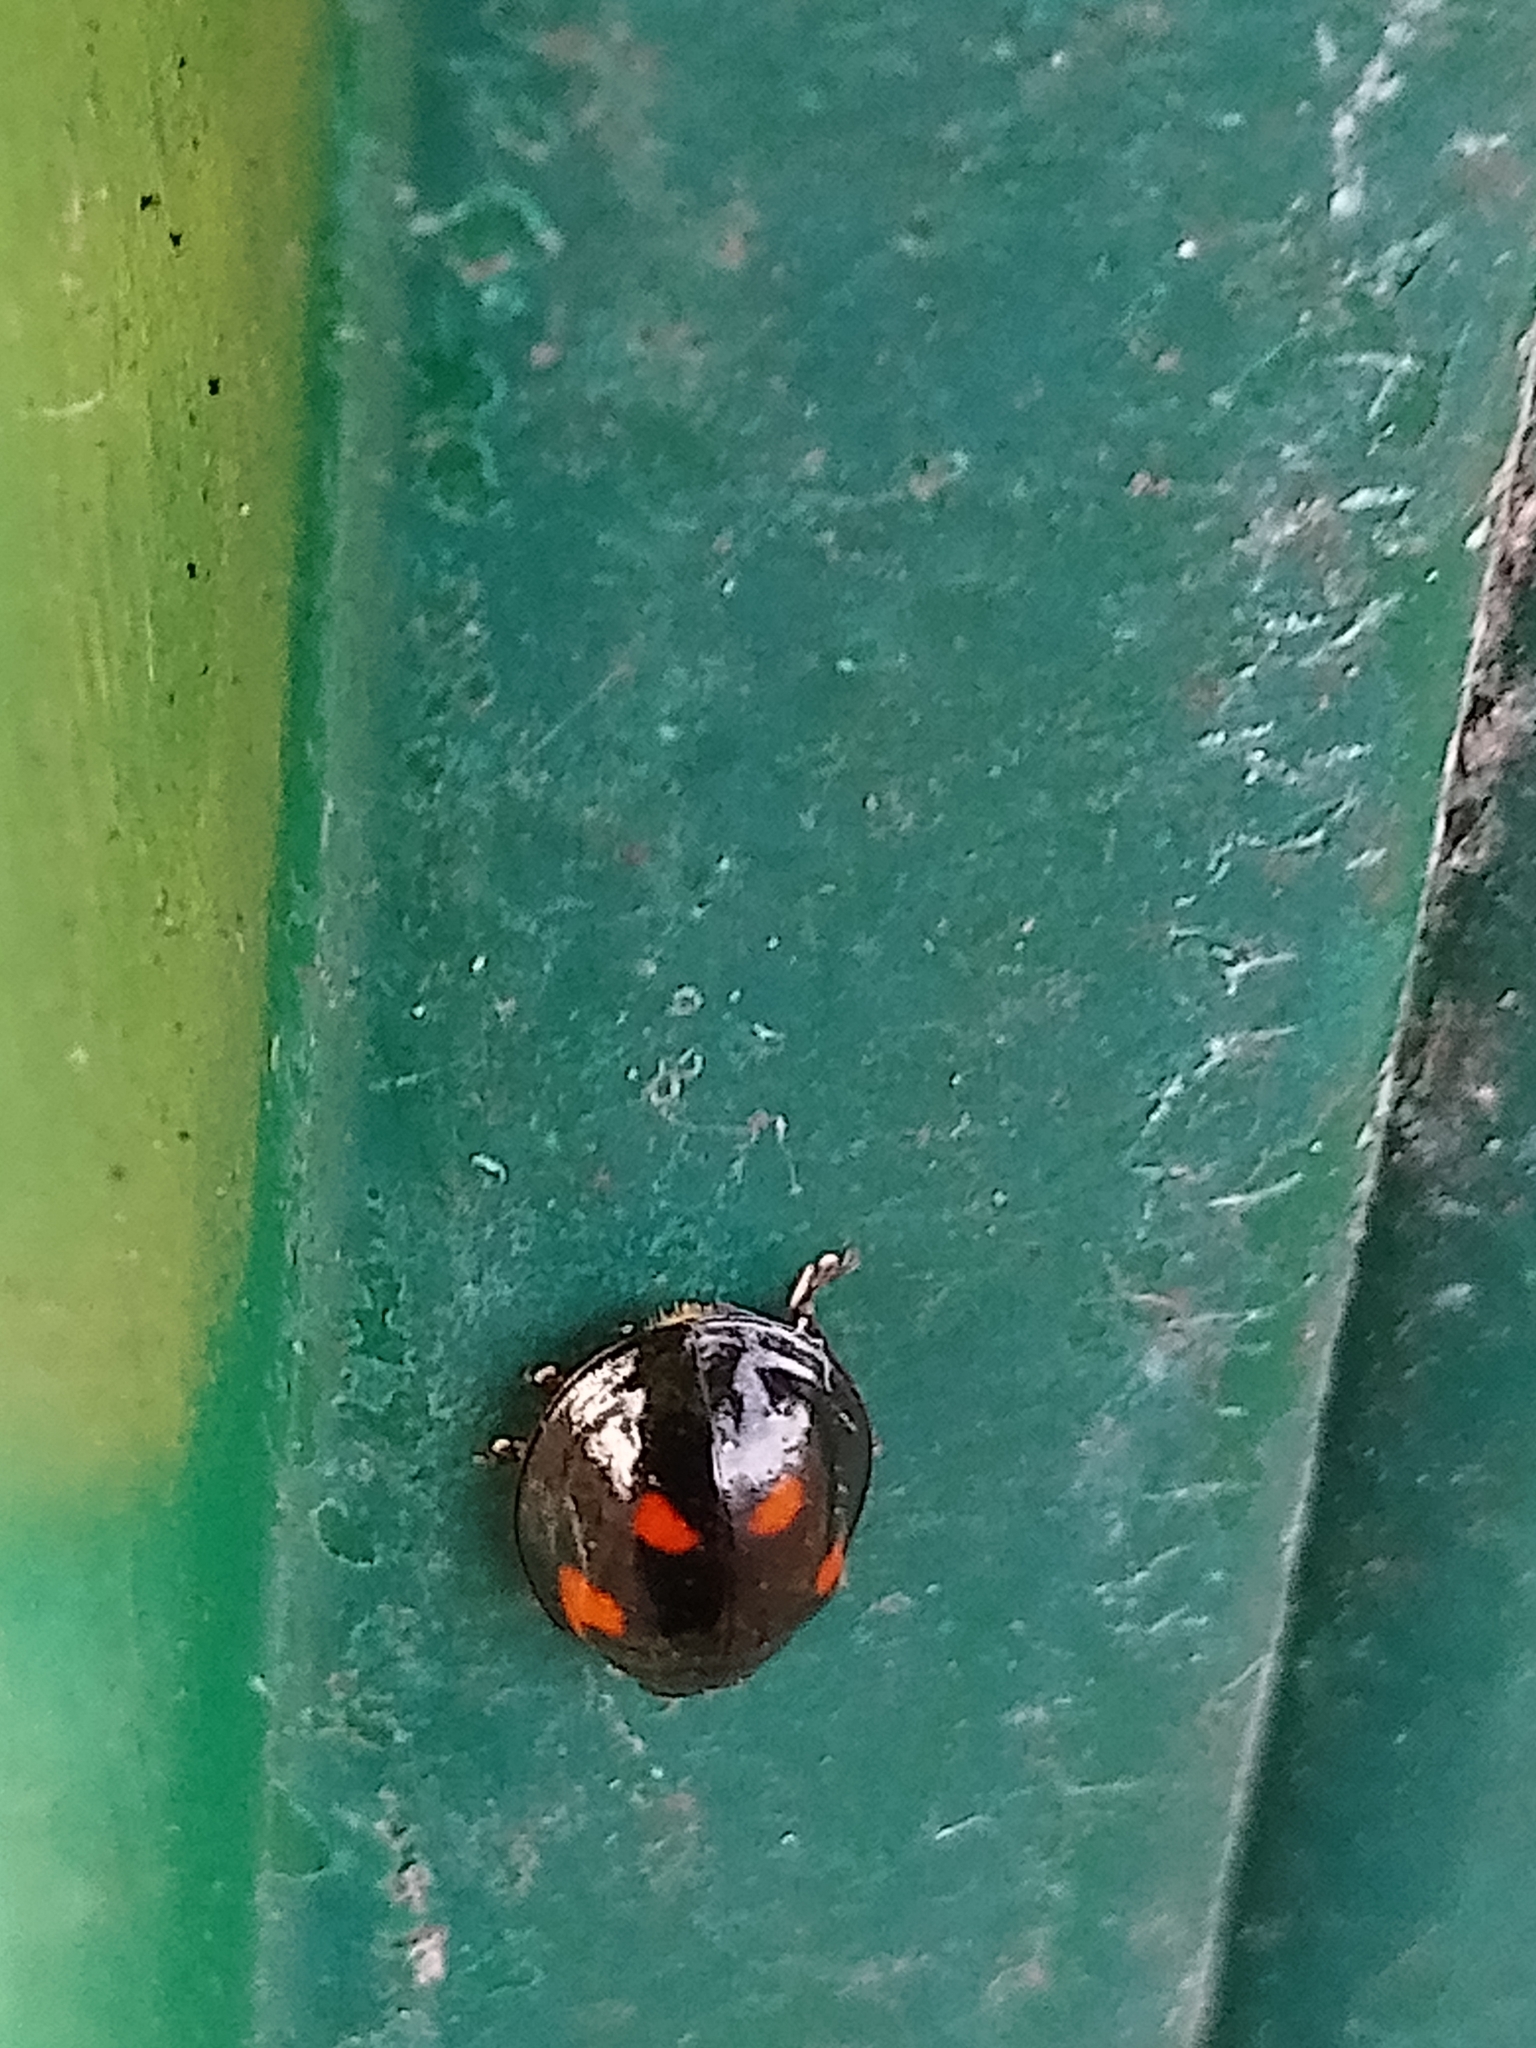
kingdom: Animalia
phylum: Arthropoda
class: Insecta
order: Coleoptera
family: Coccinellidae
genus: Brumus
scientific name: Brumus quadripustulatus
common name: Ladybird beetle
